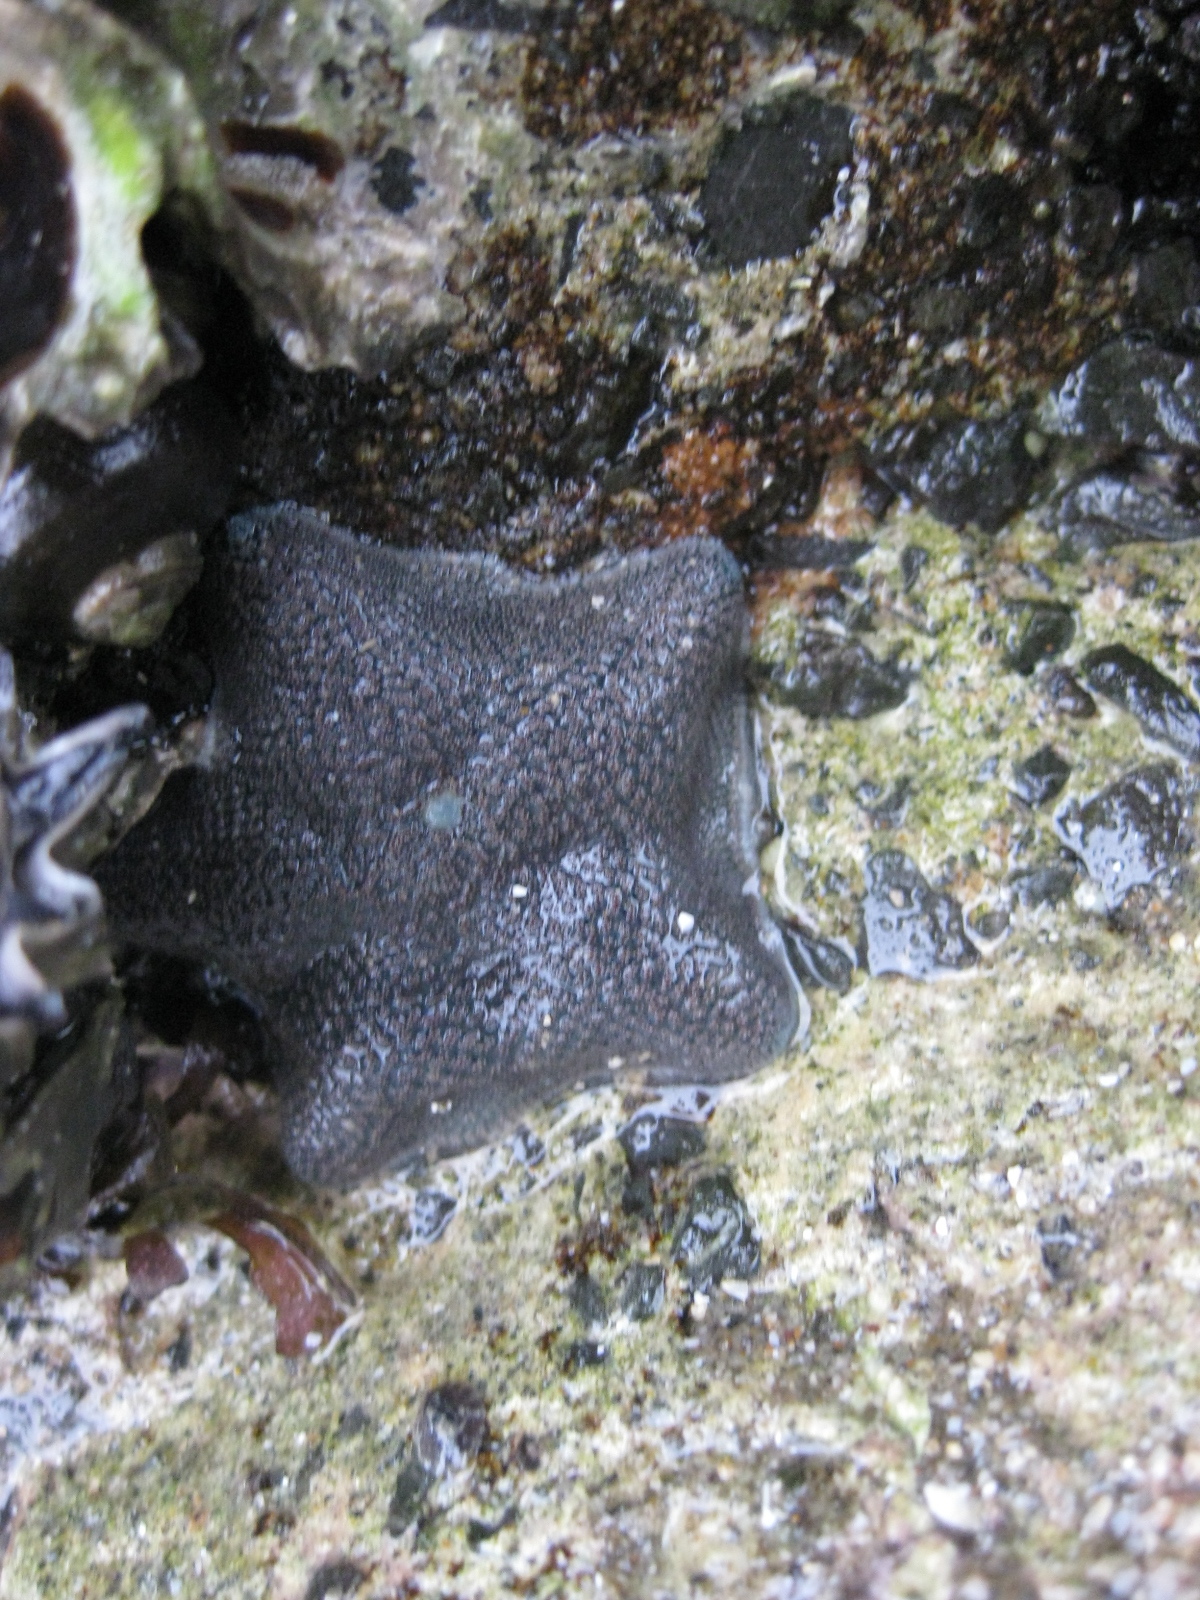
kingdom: Animalia
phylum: Echinodermata
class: Asteroidea
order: Valvatida
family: Asterinidae
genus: Patiriella
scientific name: Patiriella regularis
